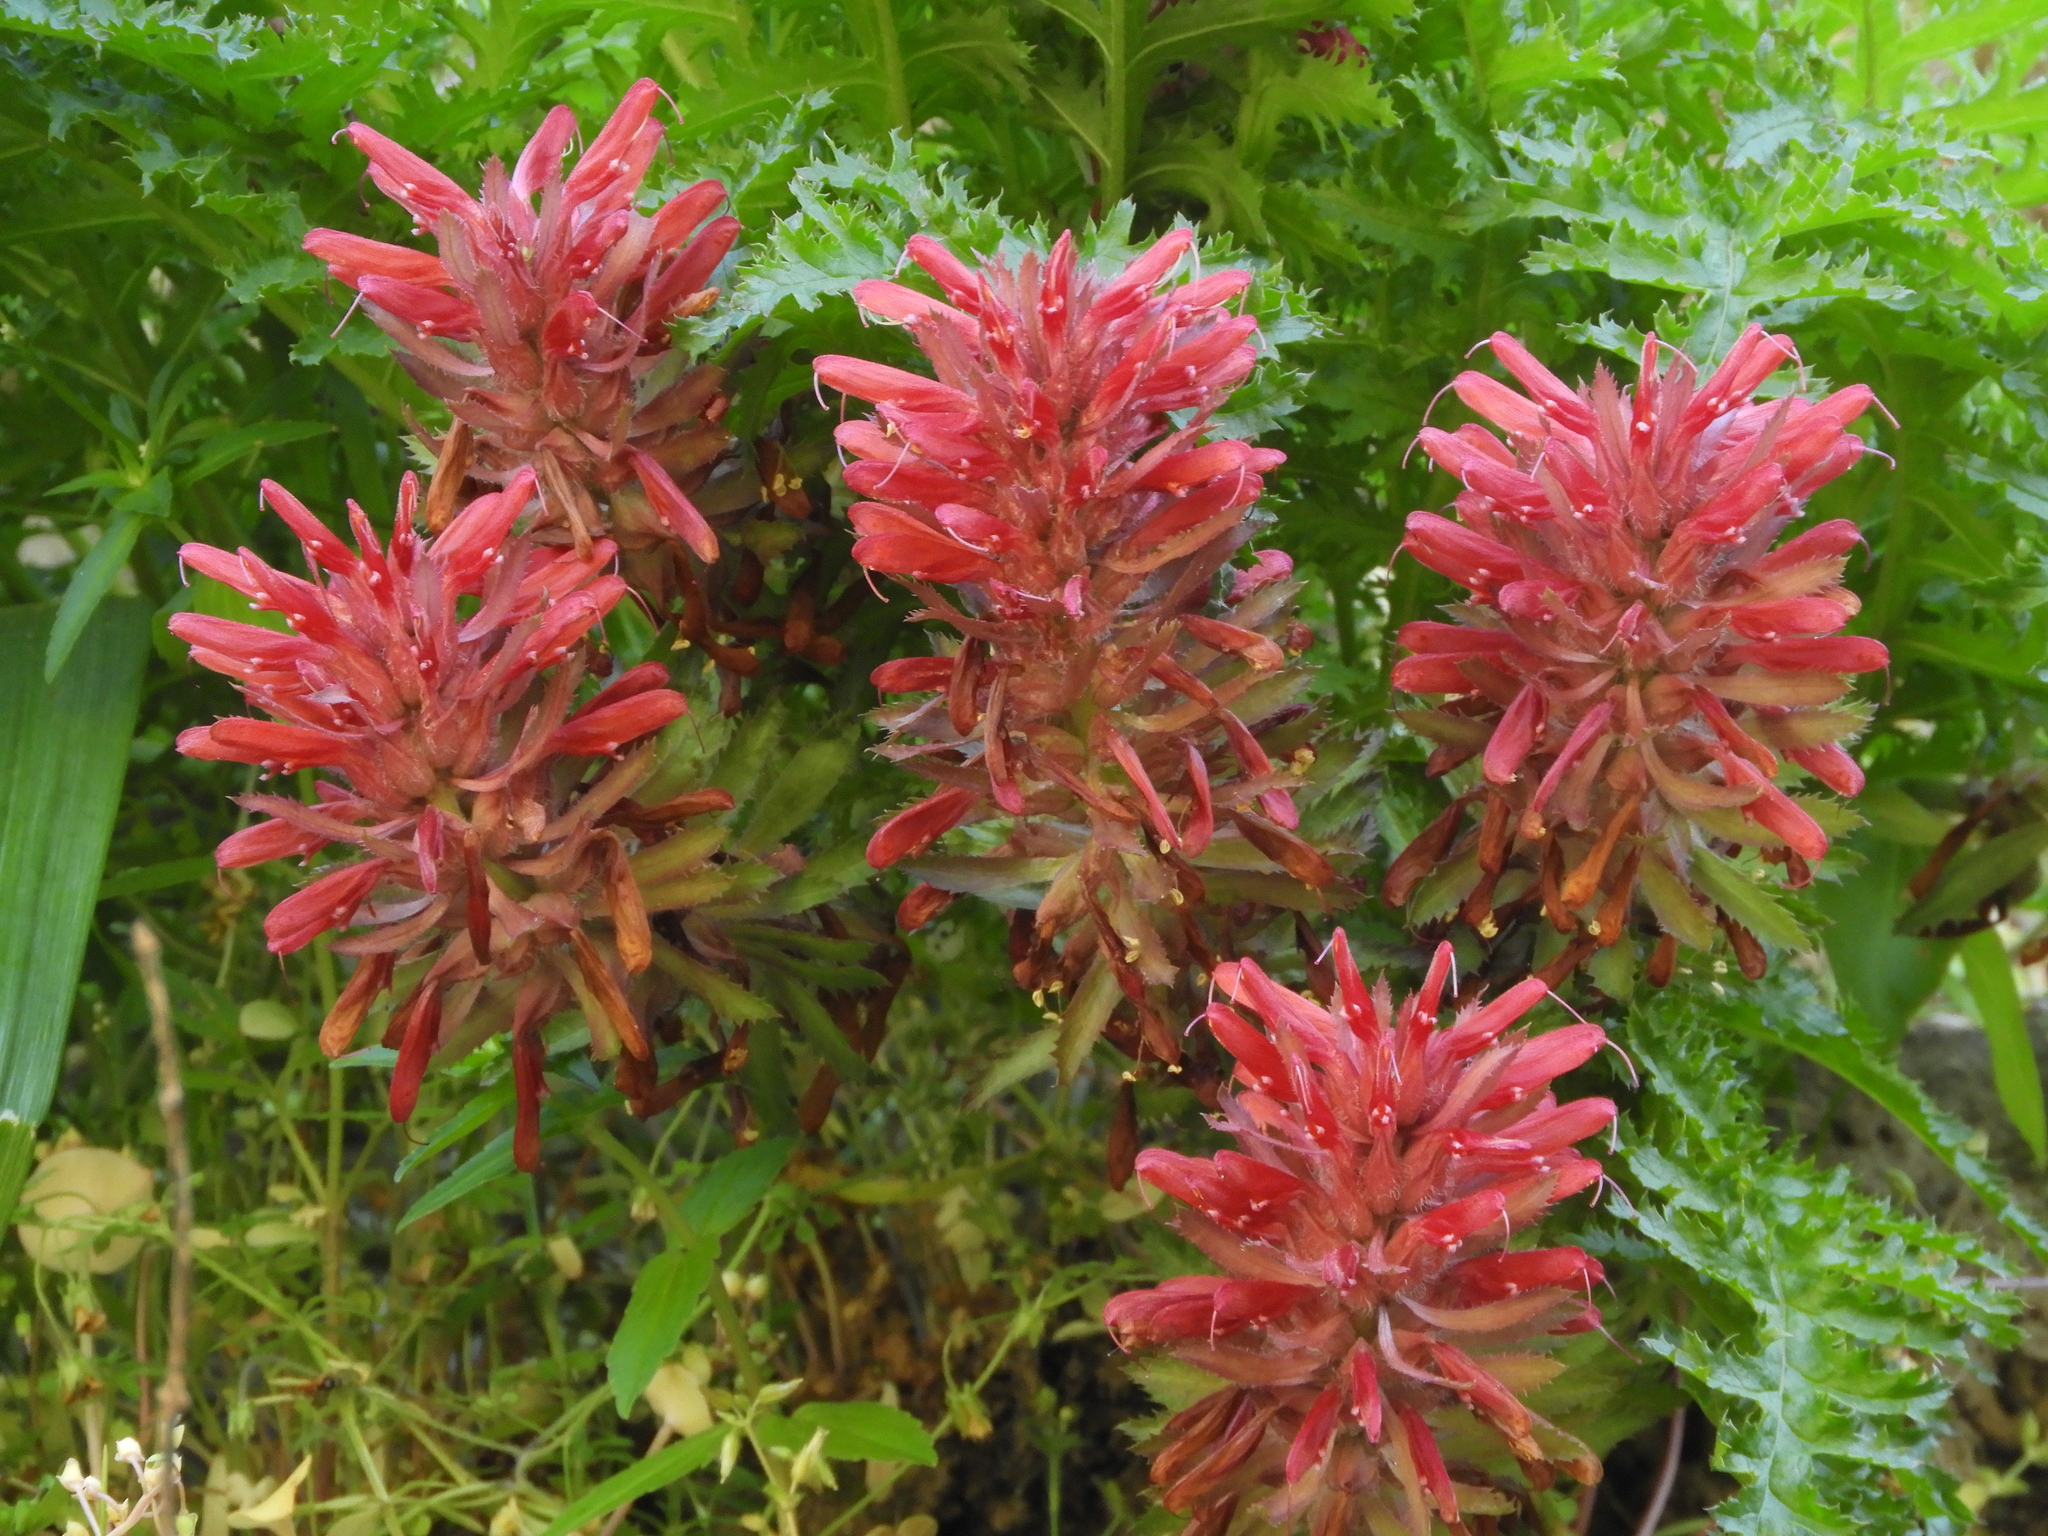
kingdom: Plantae
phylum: Tracheophyta
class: Magnoliopsida
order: Lamiales
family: Orobanchaceae
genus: Pedicularis
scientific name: Pedicularis densiflora
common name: Indian warrior
